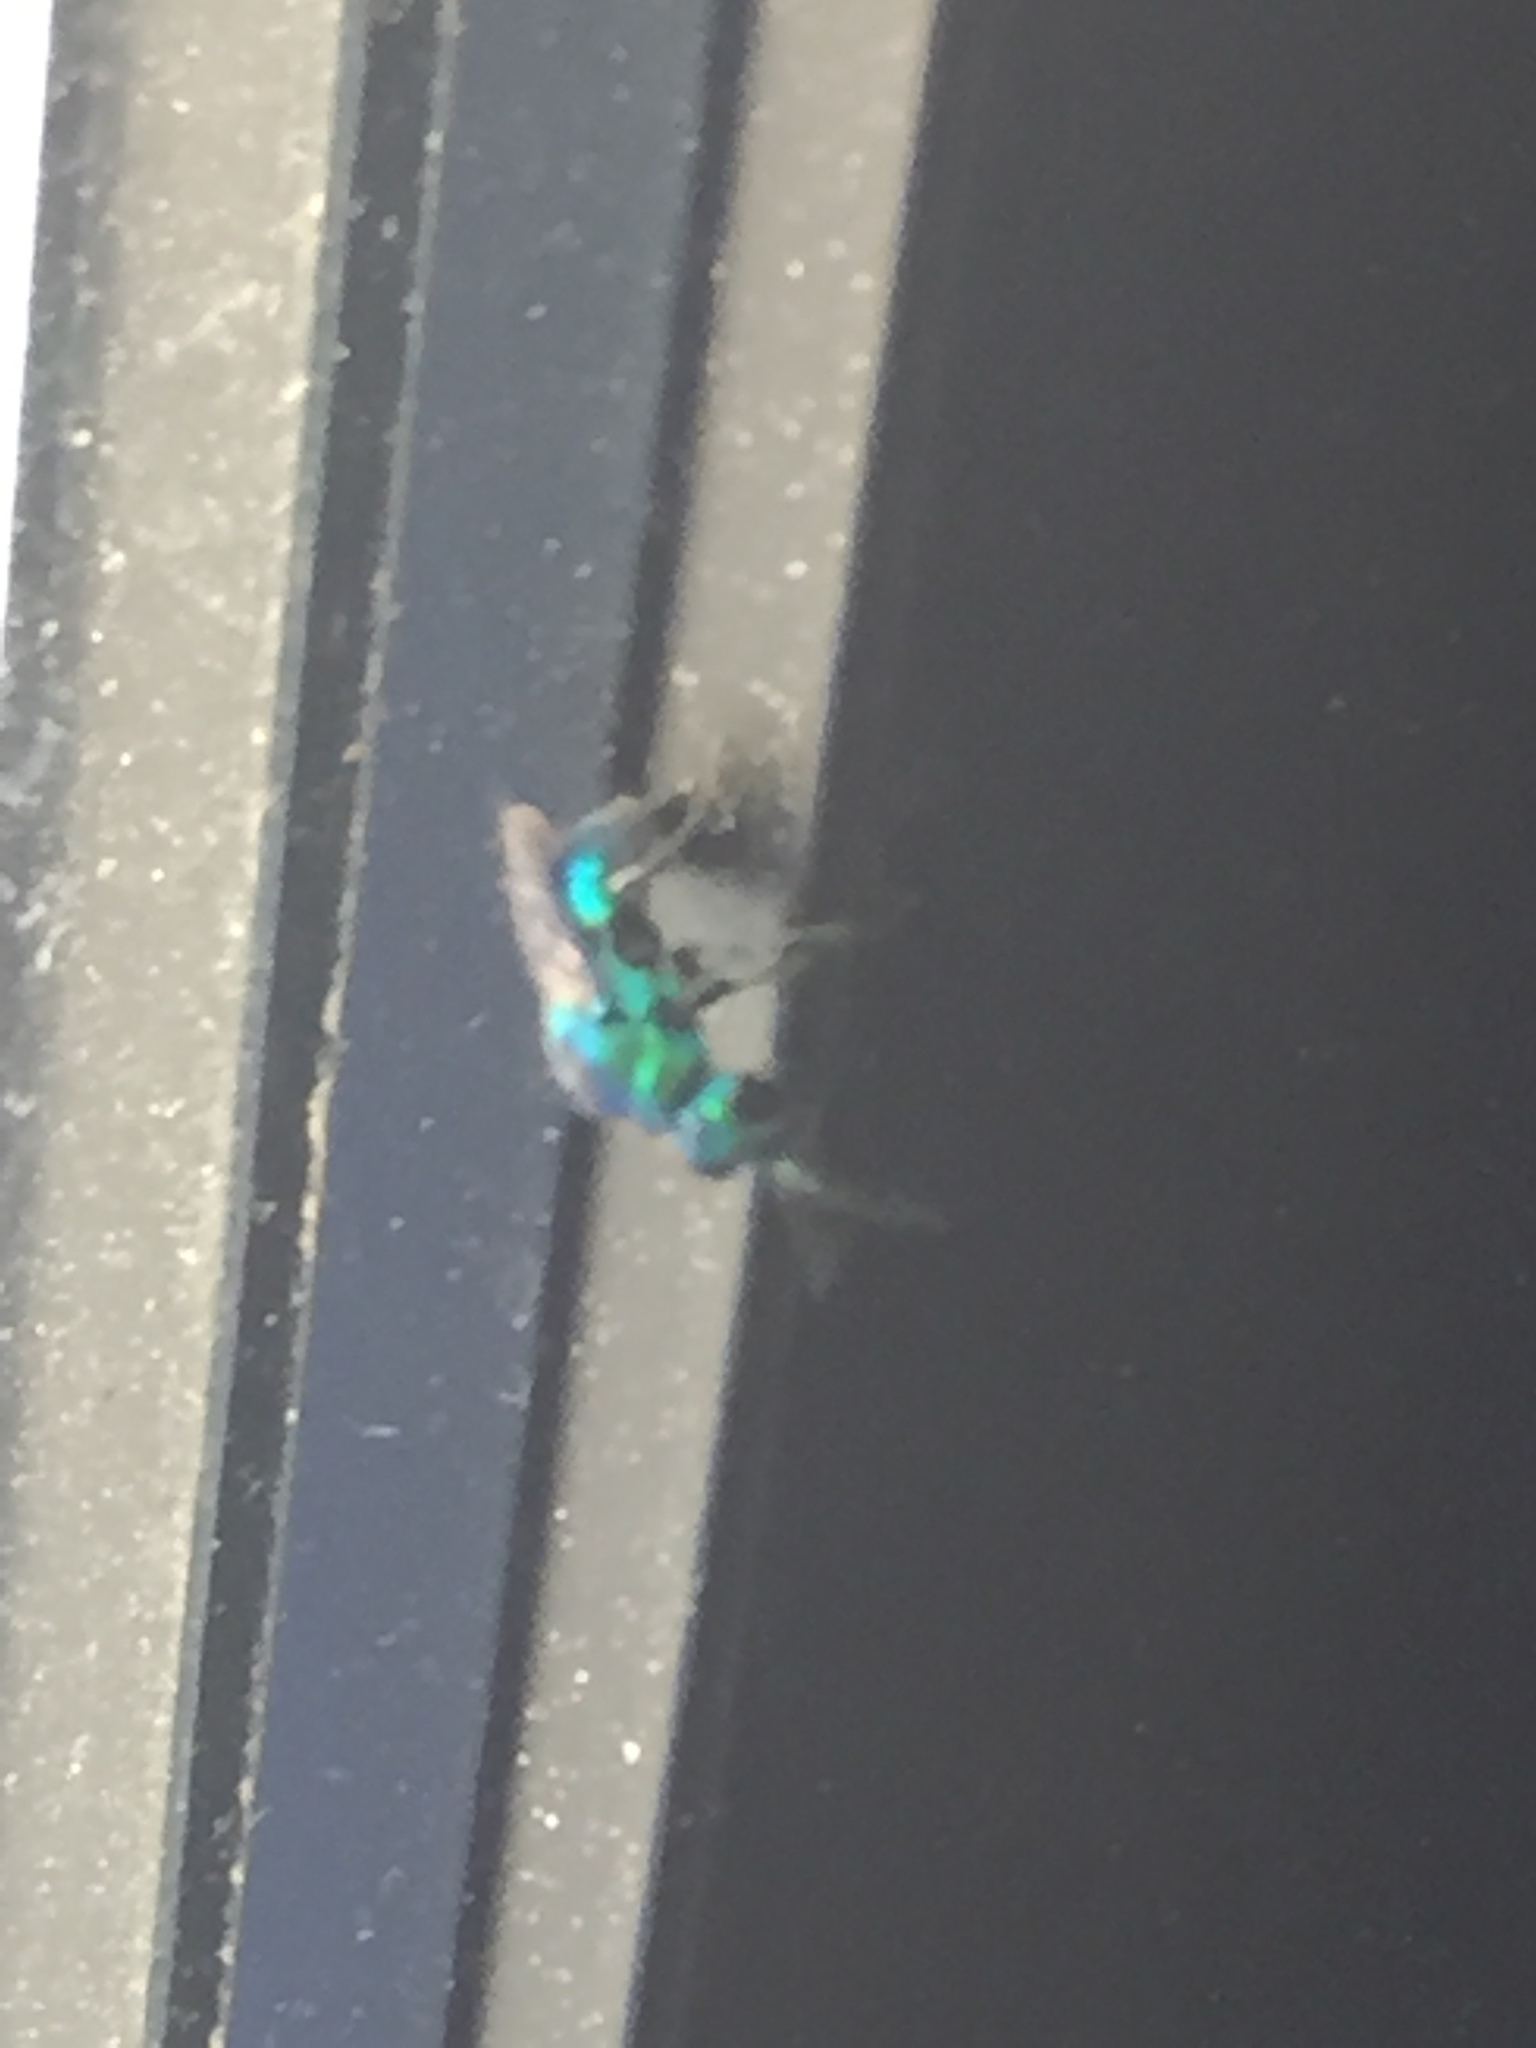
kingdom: Animalia
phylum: Arthropoda
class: Insecta
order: Hymenoptera
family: Chrysididae
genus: Chrysis
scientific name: Chrysis angolensis
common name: Cuckoo wasp
